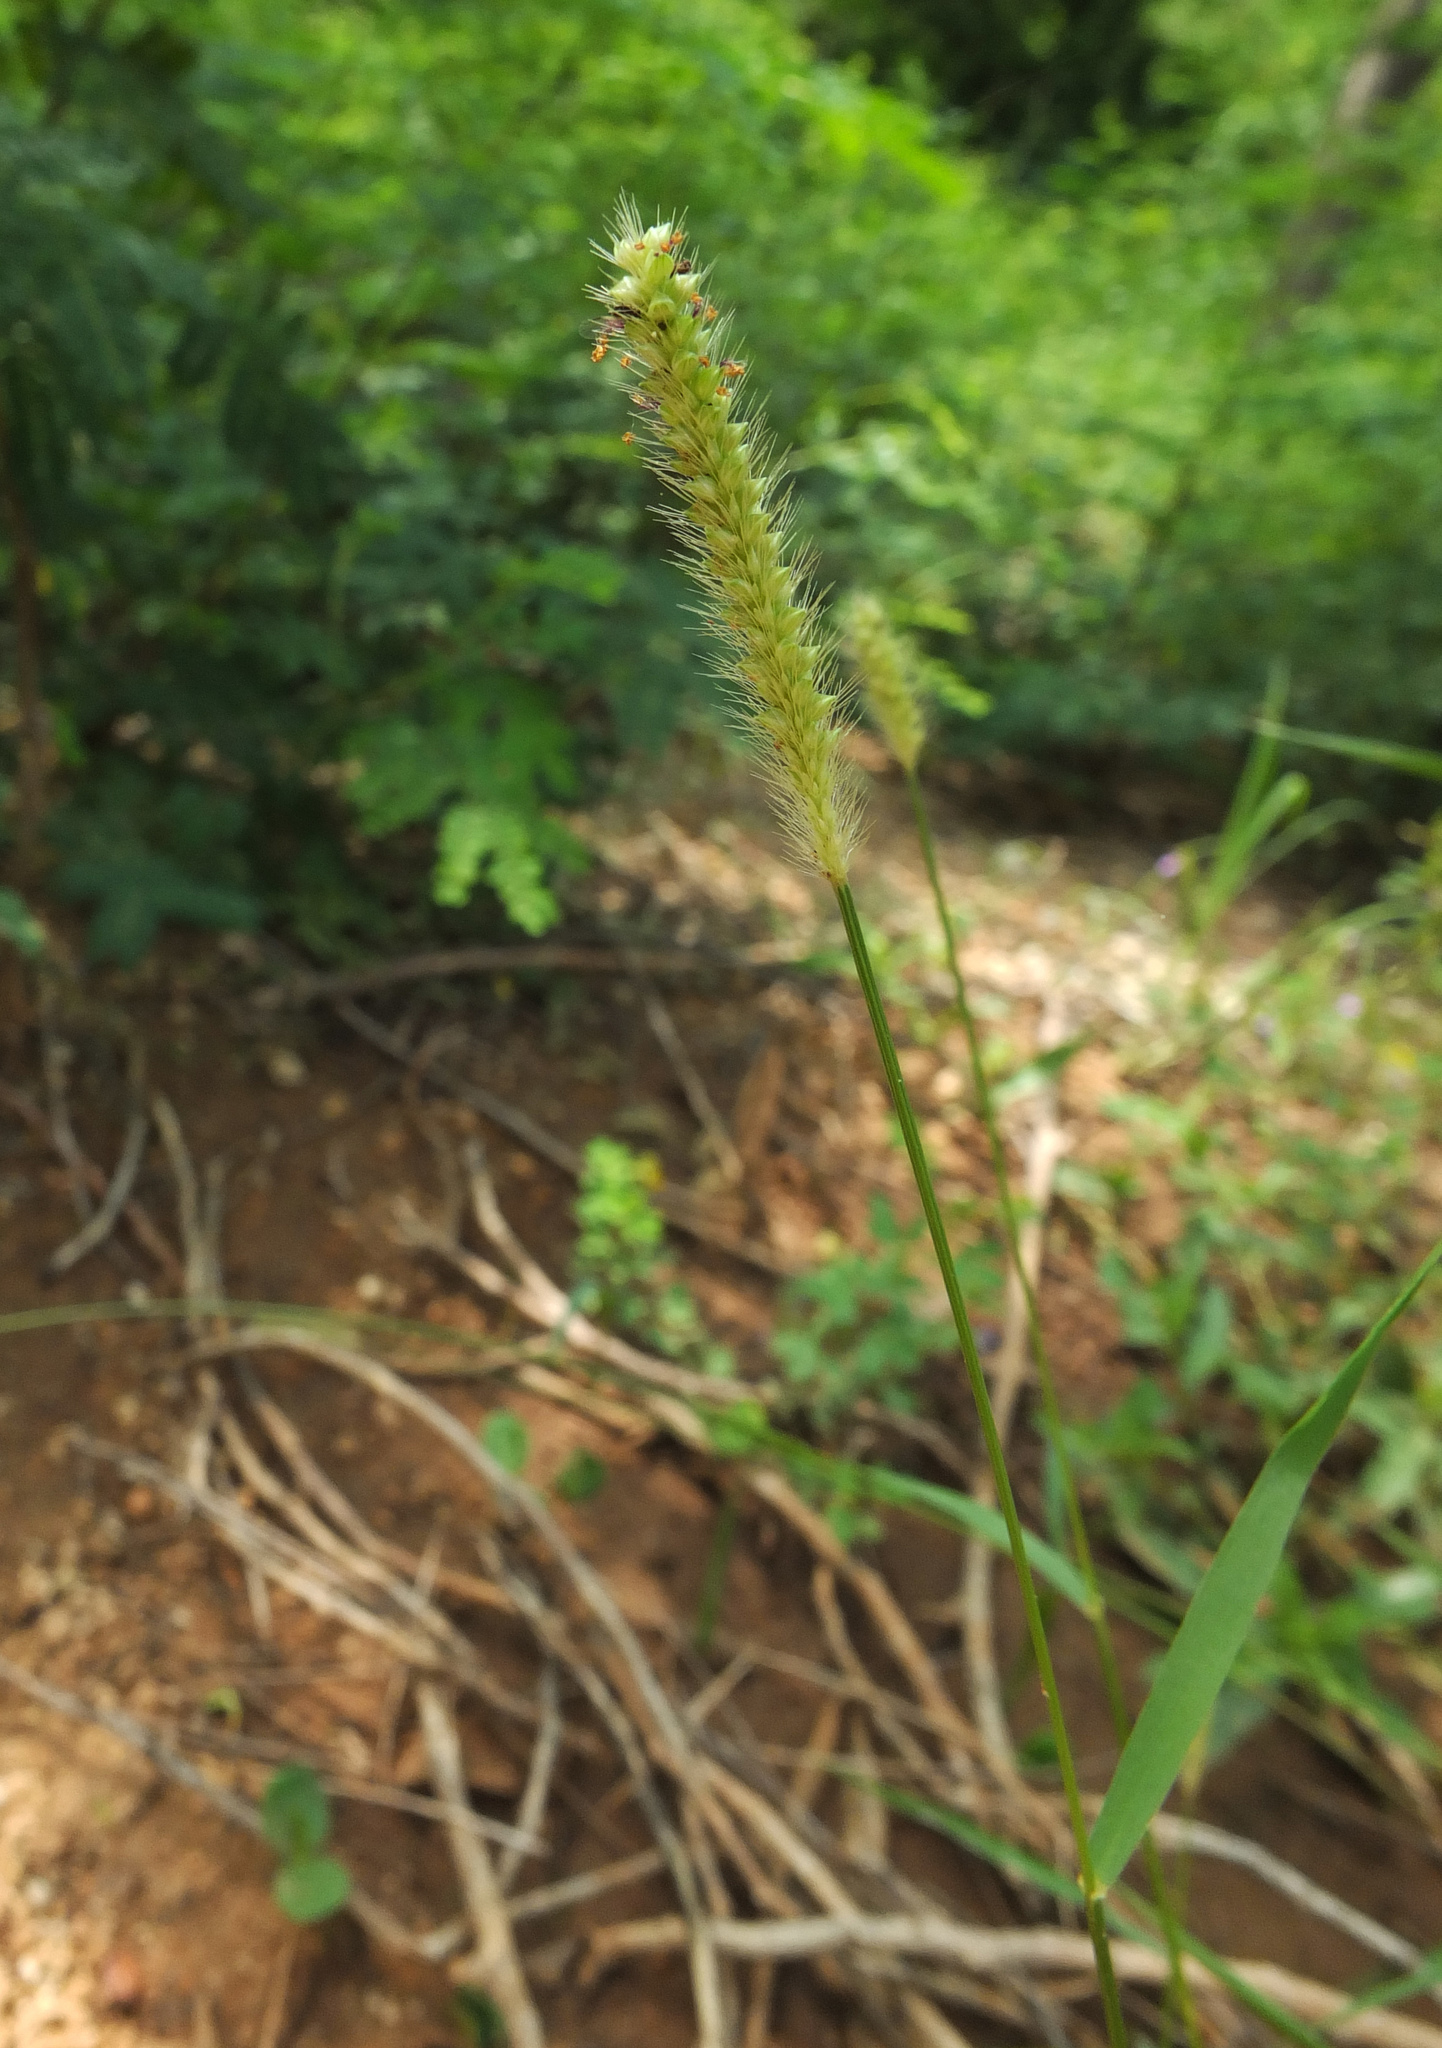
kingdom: Plantae
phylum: Tracheophyta
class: Liliopsida
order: Poales
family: Poaceae
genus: Setaria
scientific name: Setaria pumila
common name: Yellow bristle-grass
